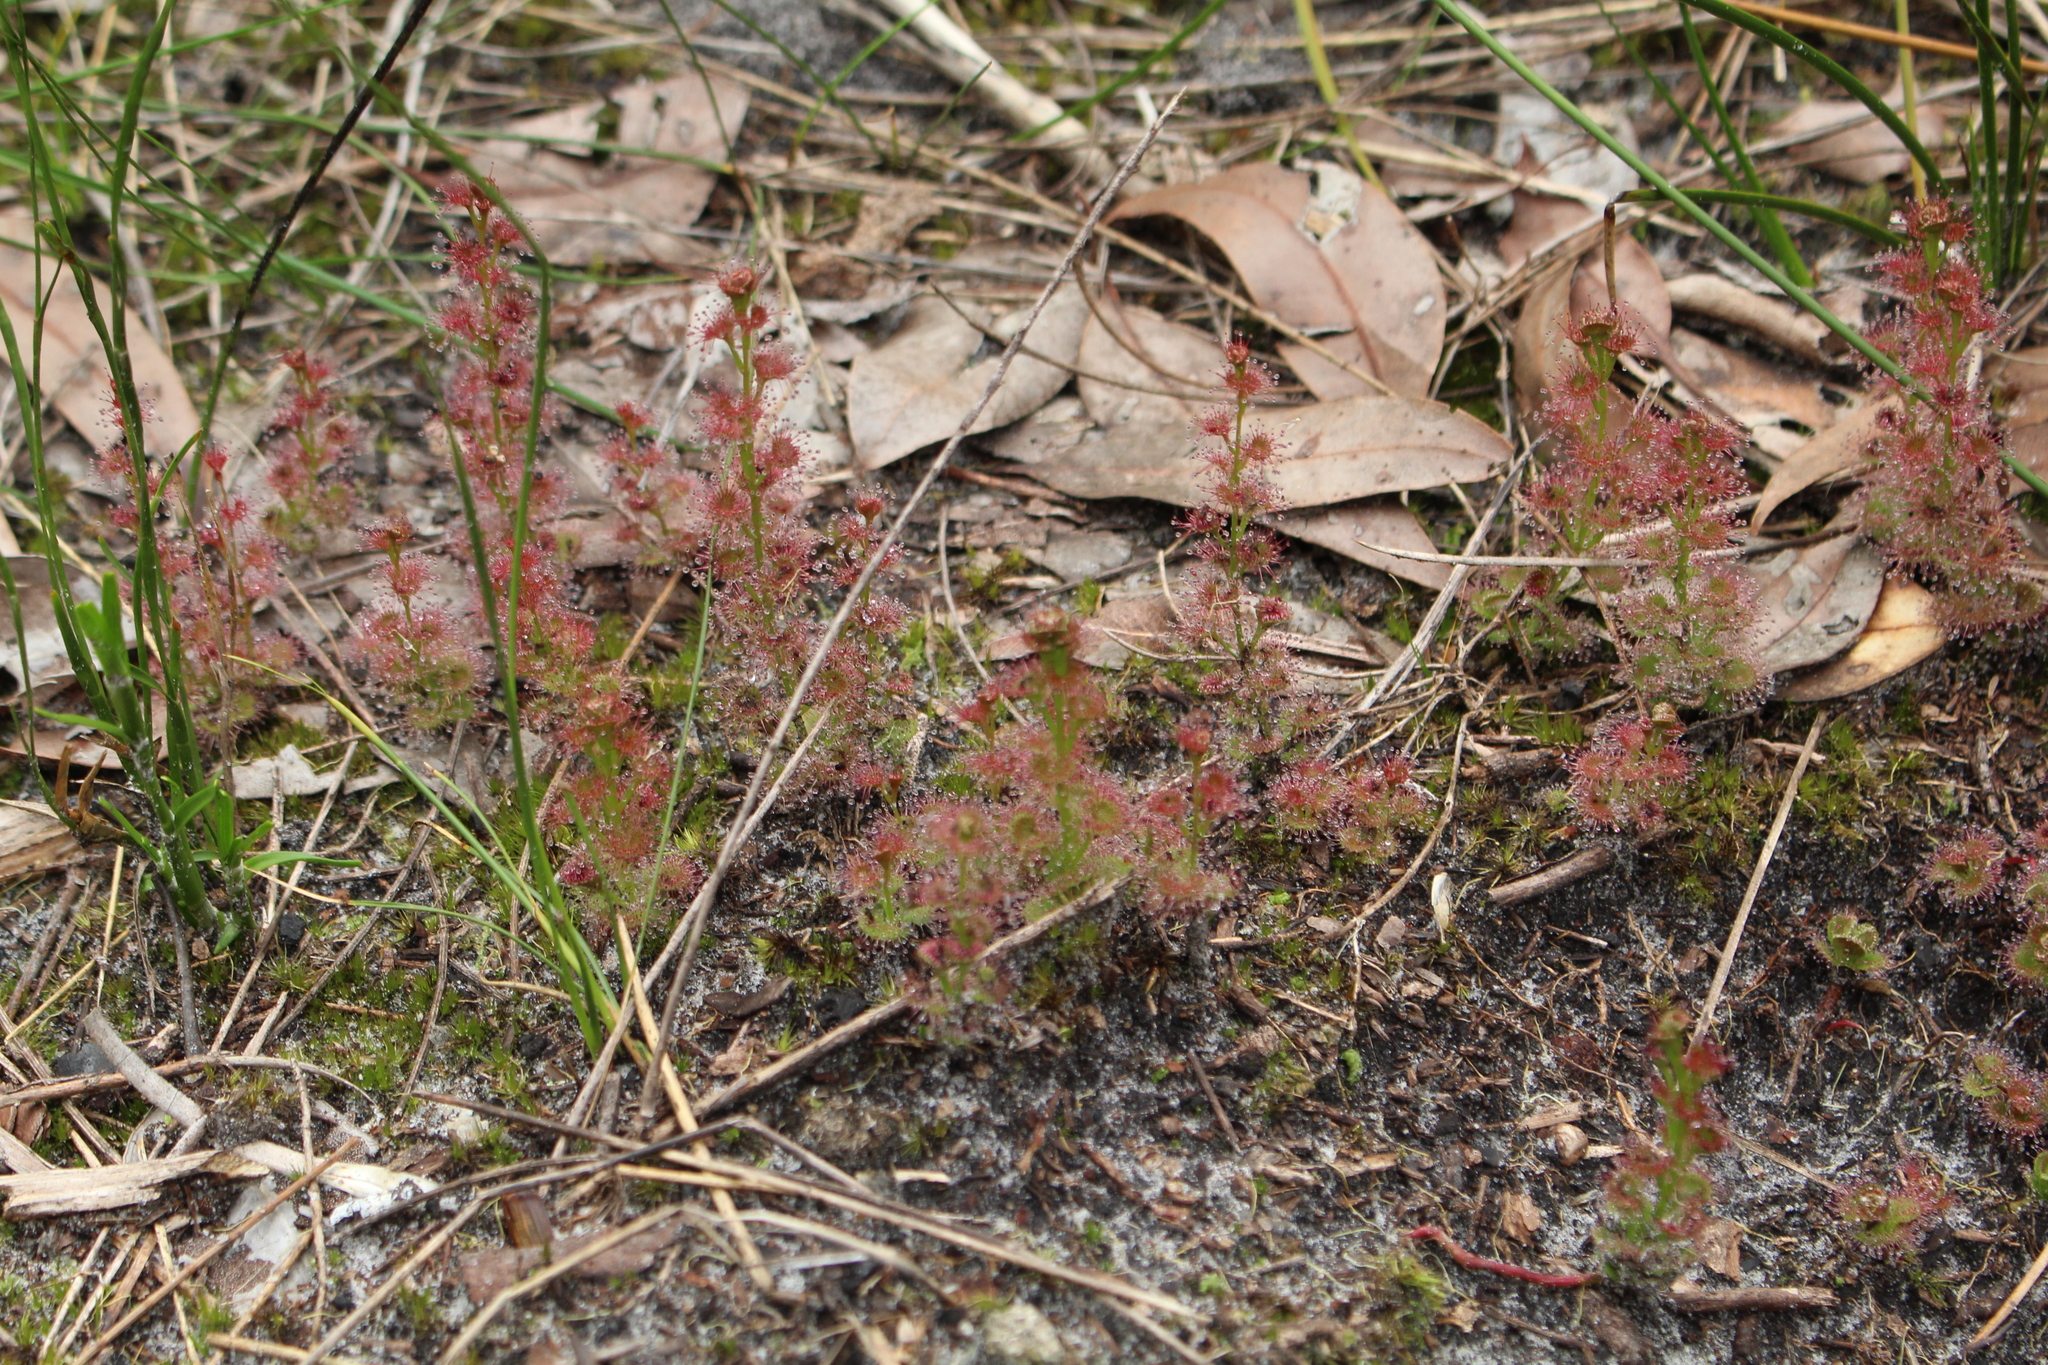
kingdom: Plantae
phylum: Tracheophyta
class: Magnoliopsida
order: Caryophyllales
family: Droseraceae
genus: Drosera
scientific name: Drosera platypoda
